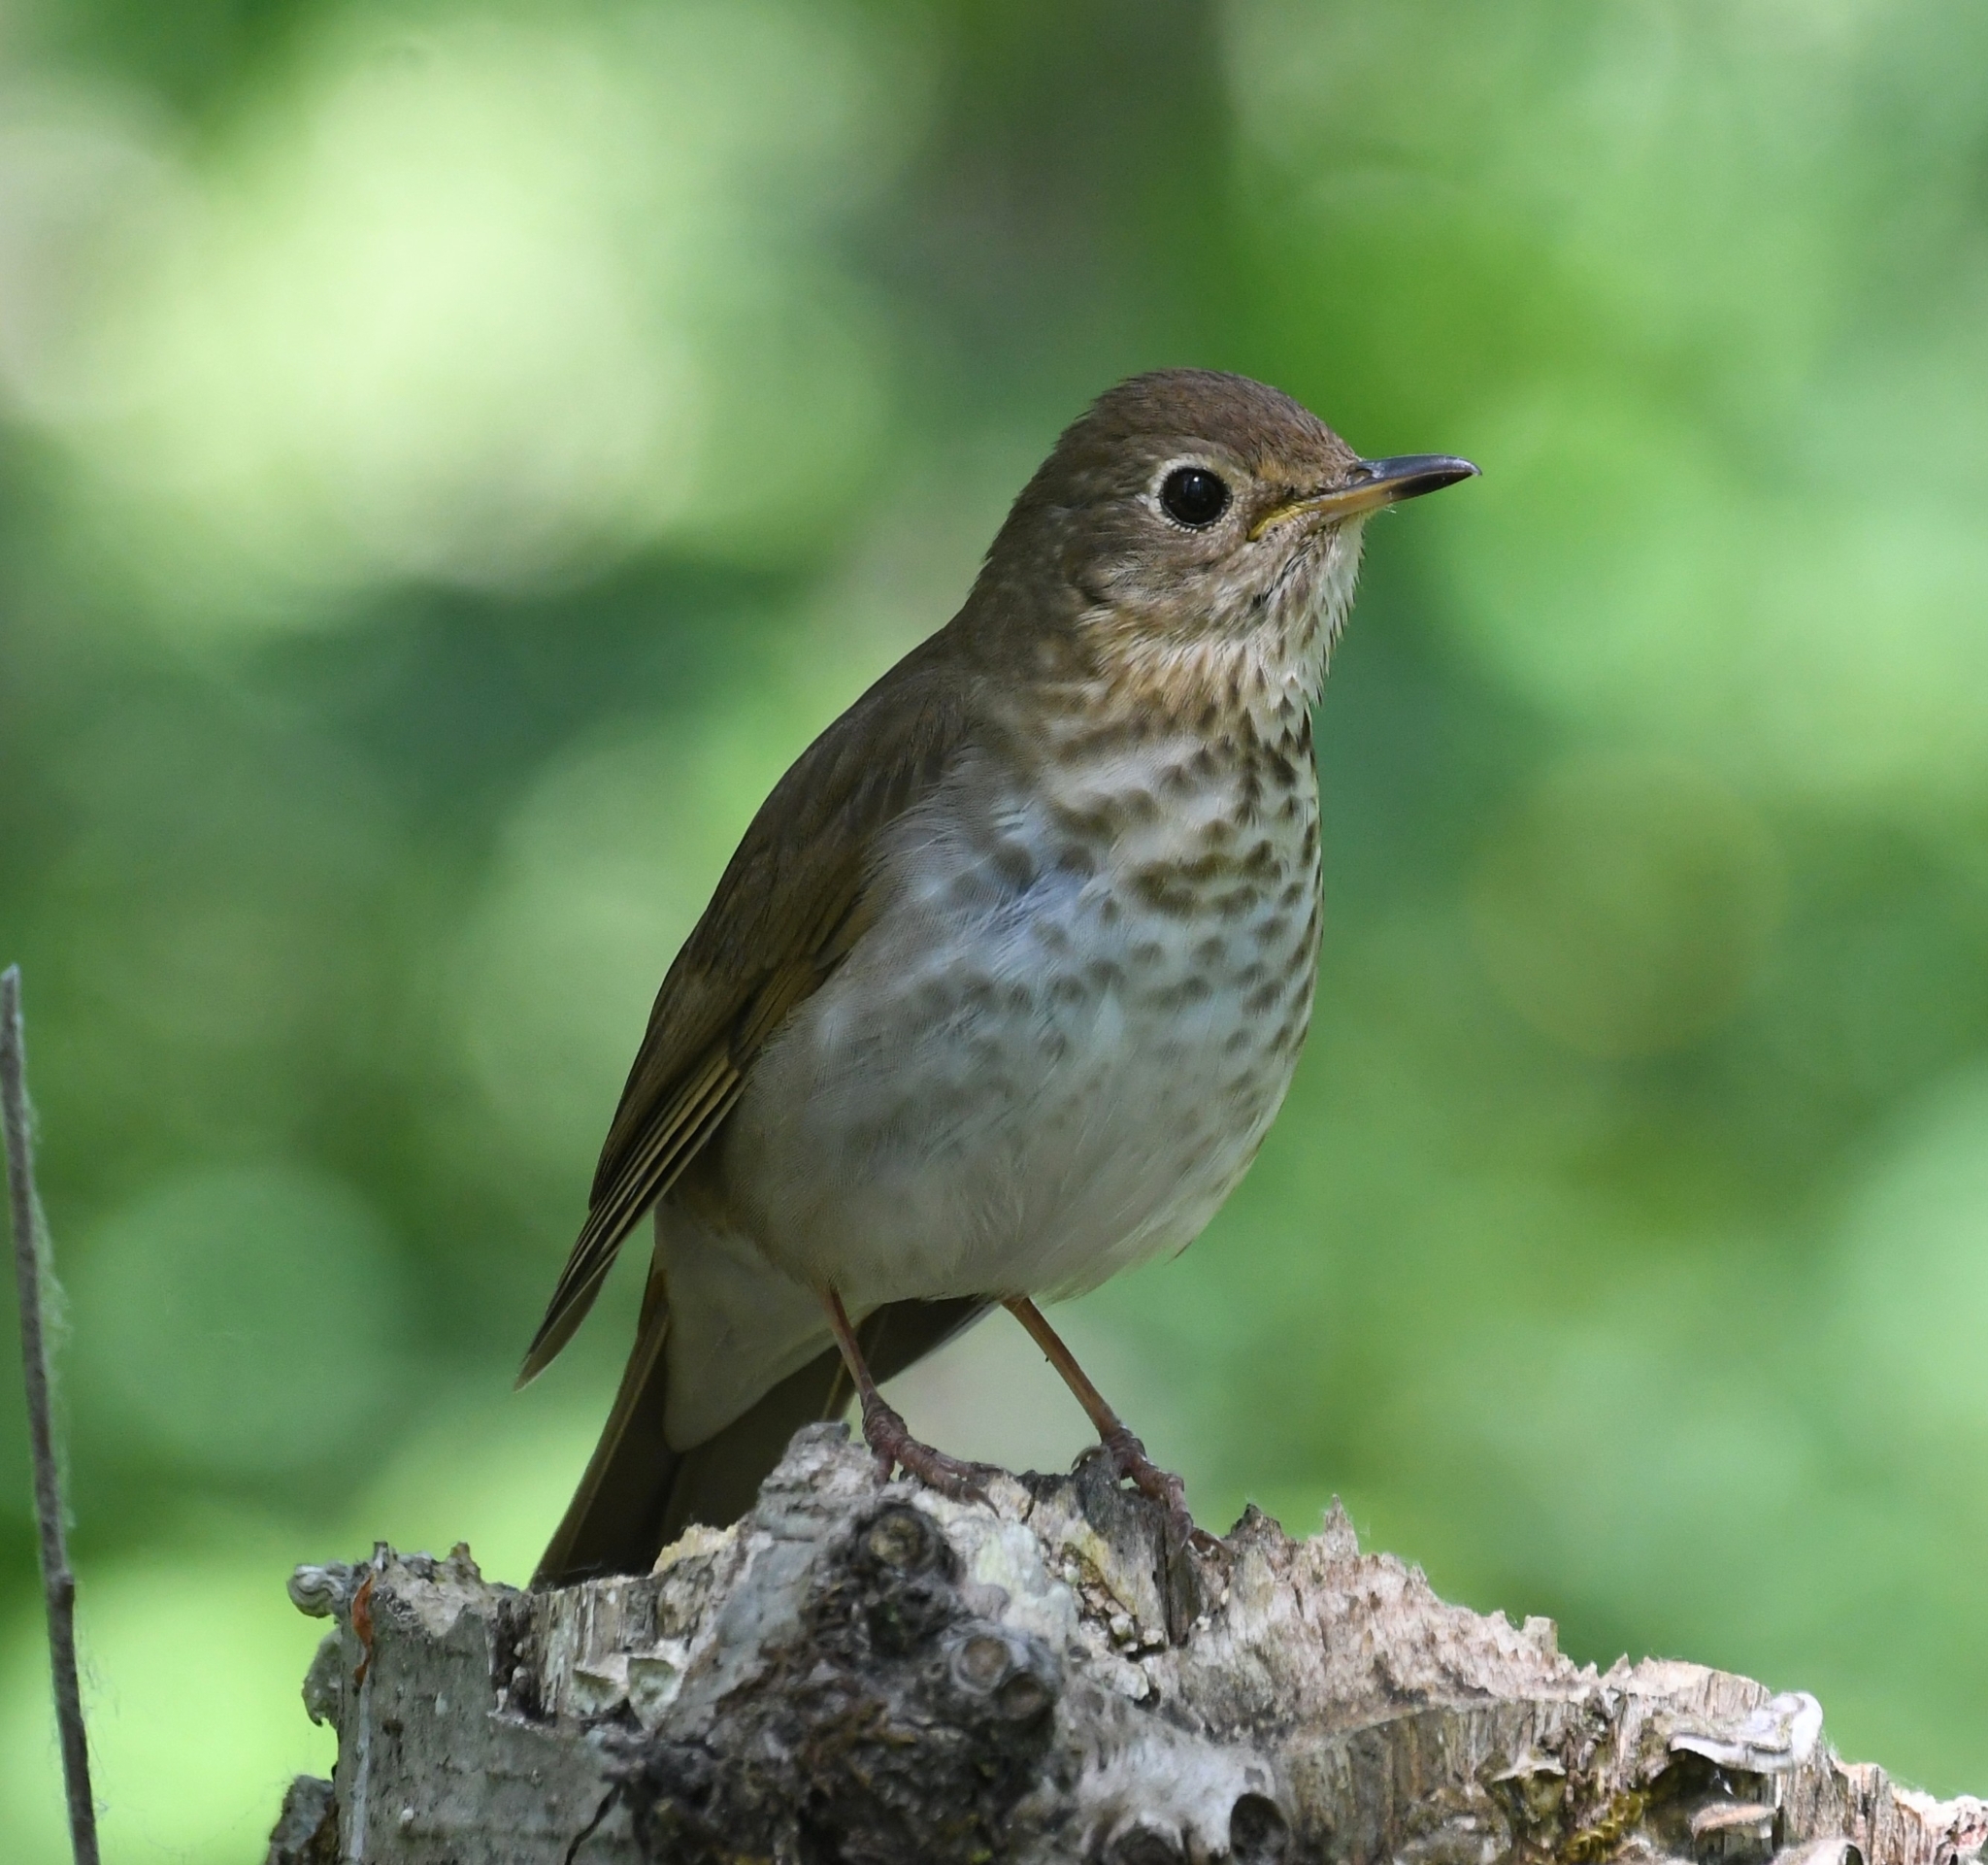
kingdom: Animalia
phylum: Chordata
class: Aves
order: Passeriformes
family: Turdidae
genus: Catharus
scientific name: Catharus ustulatus
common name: Swainson's thrush
